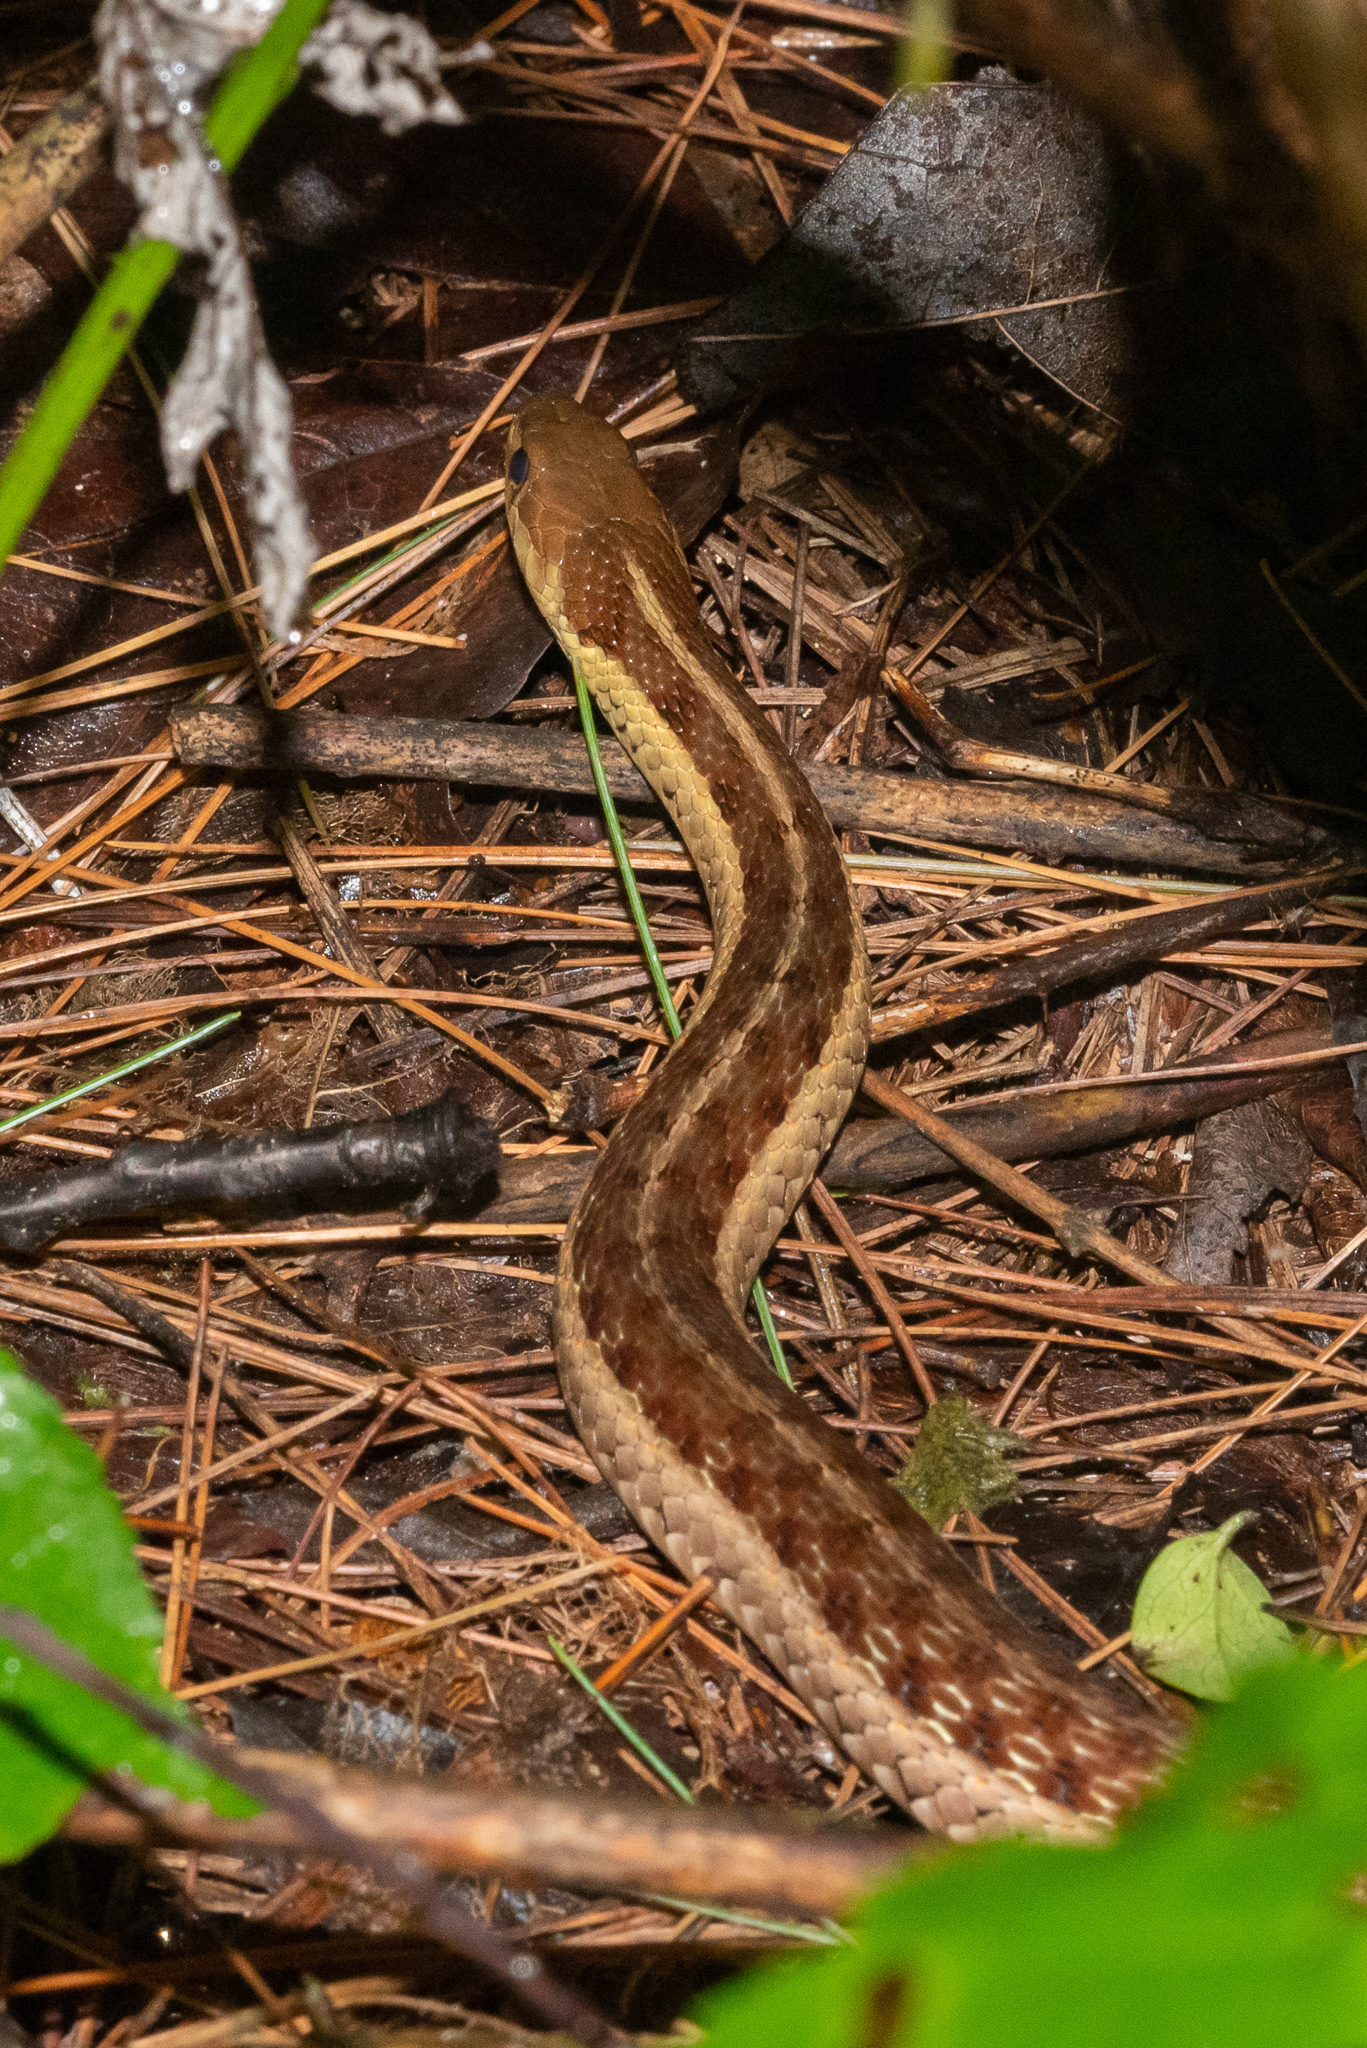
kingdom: Animalia
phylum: Chordata
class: Squamata
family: Colubridae
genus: Thamnophis
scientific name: Thamnophis sirtalis
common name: Common garter snake
